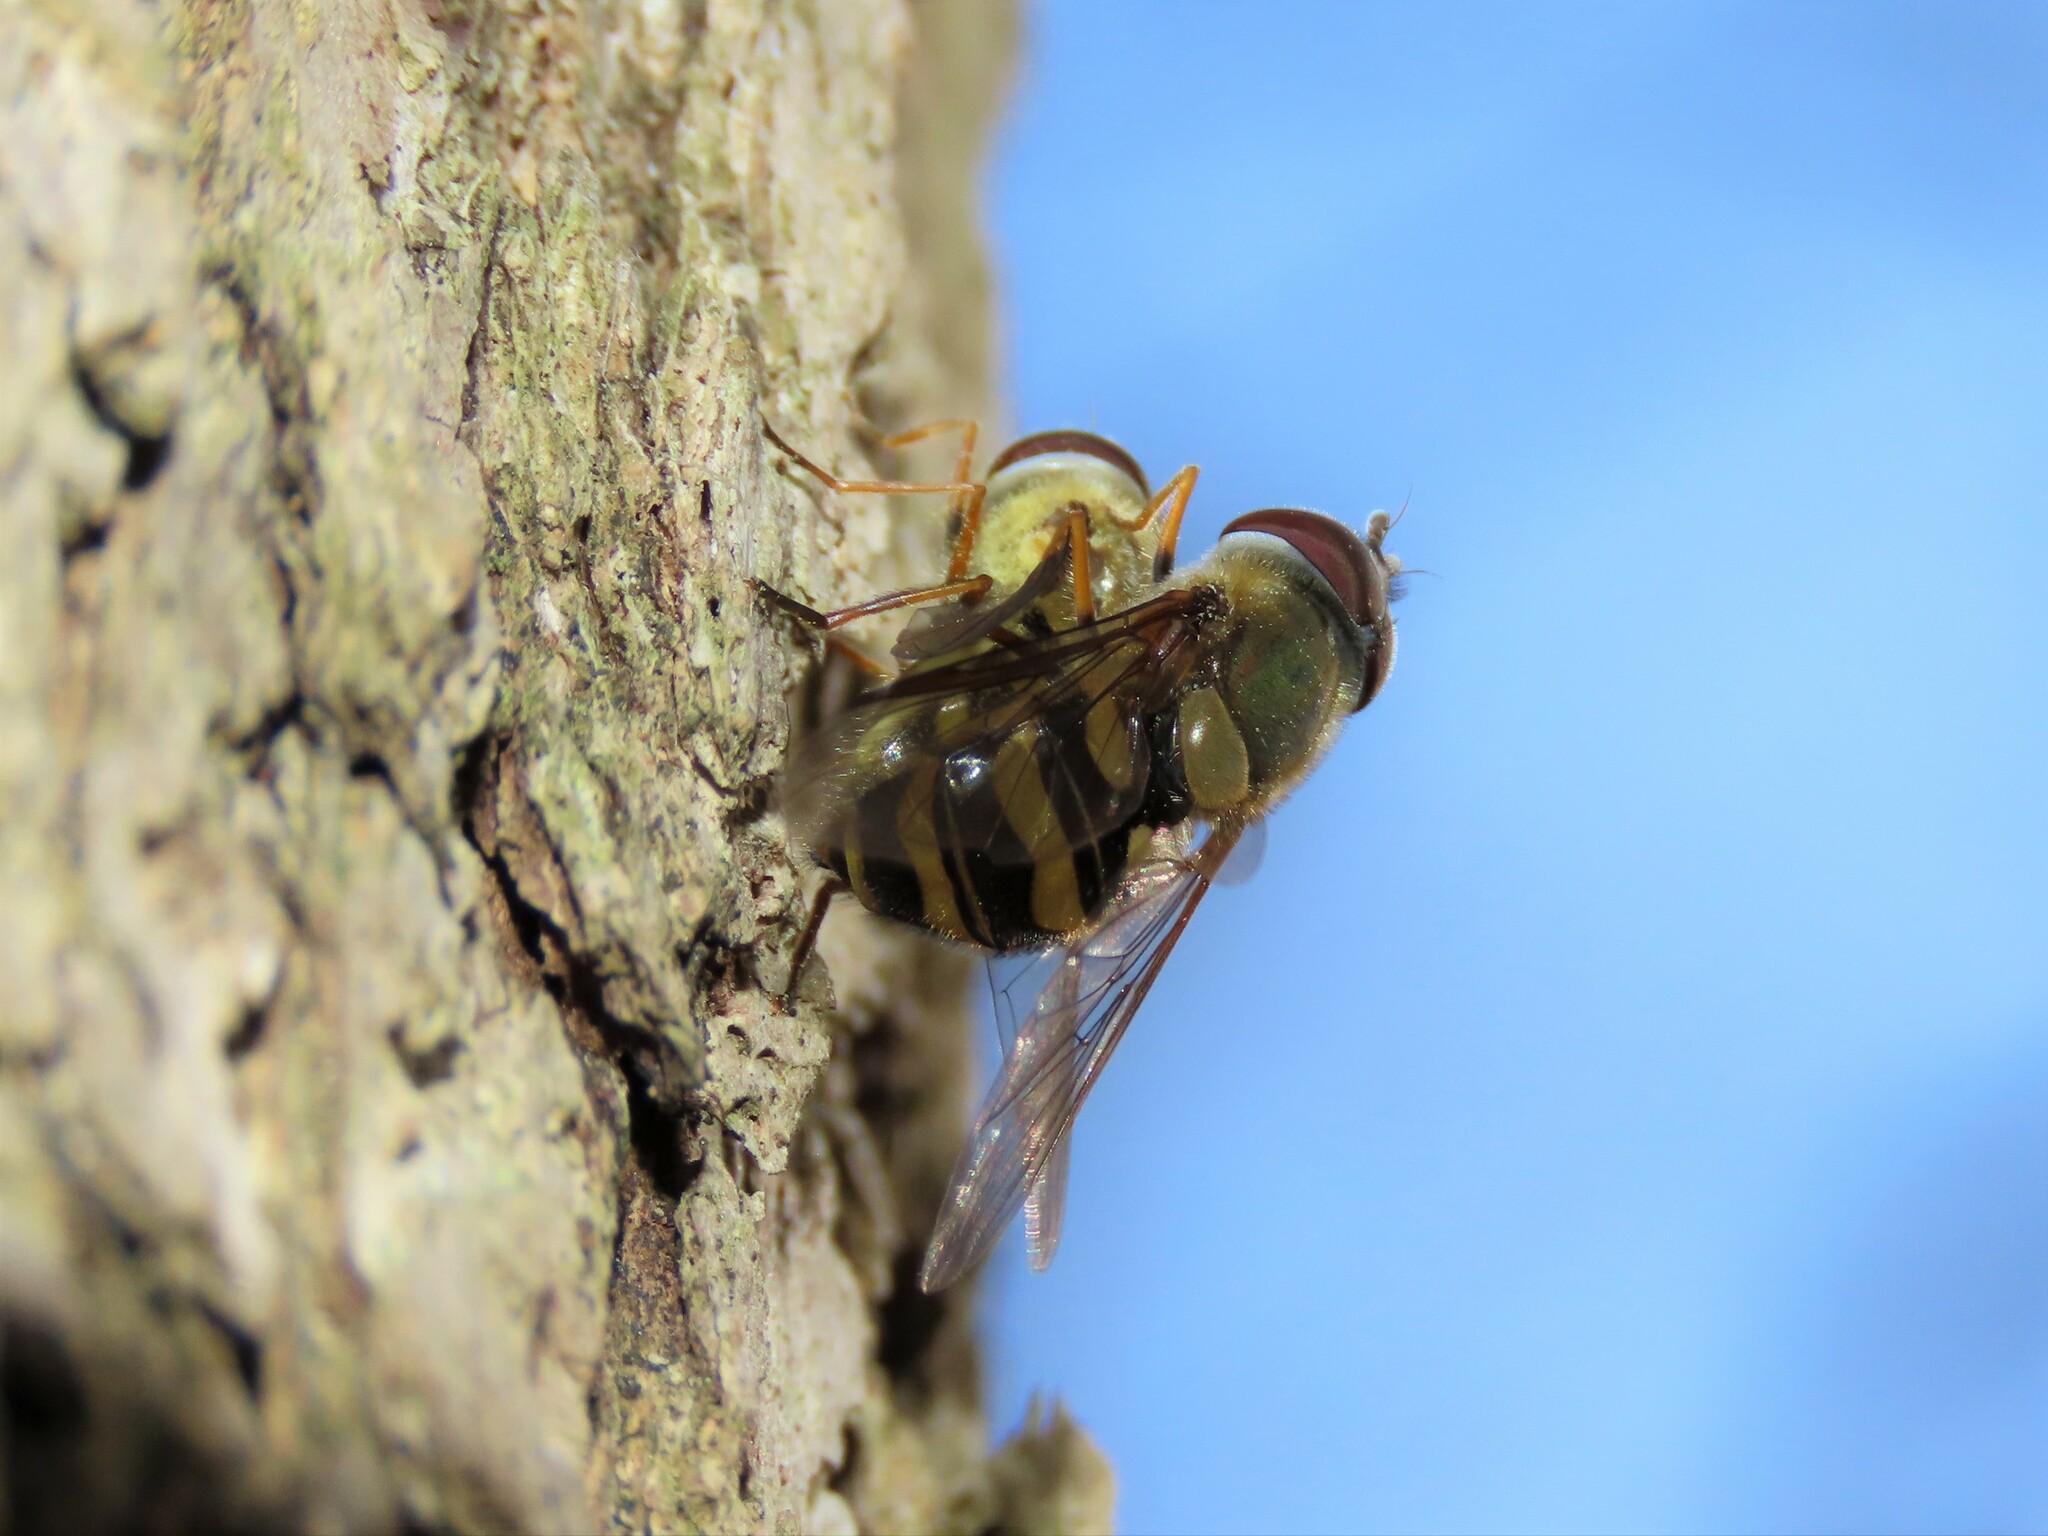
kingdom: Animalia
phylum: Arthropoda
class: Insecta
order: Diptera
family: Syrphidae
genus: Syrphus
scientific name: Syrphus torvus
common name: Hairy-eyed flower fly
